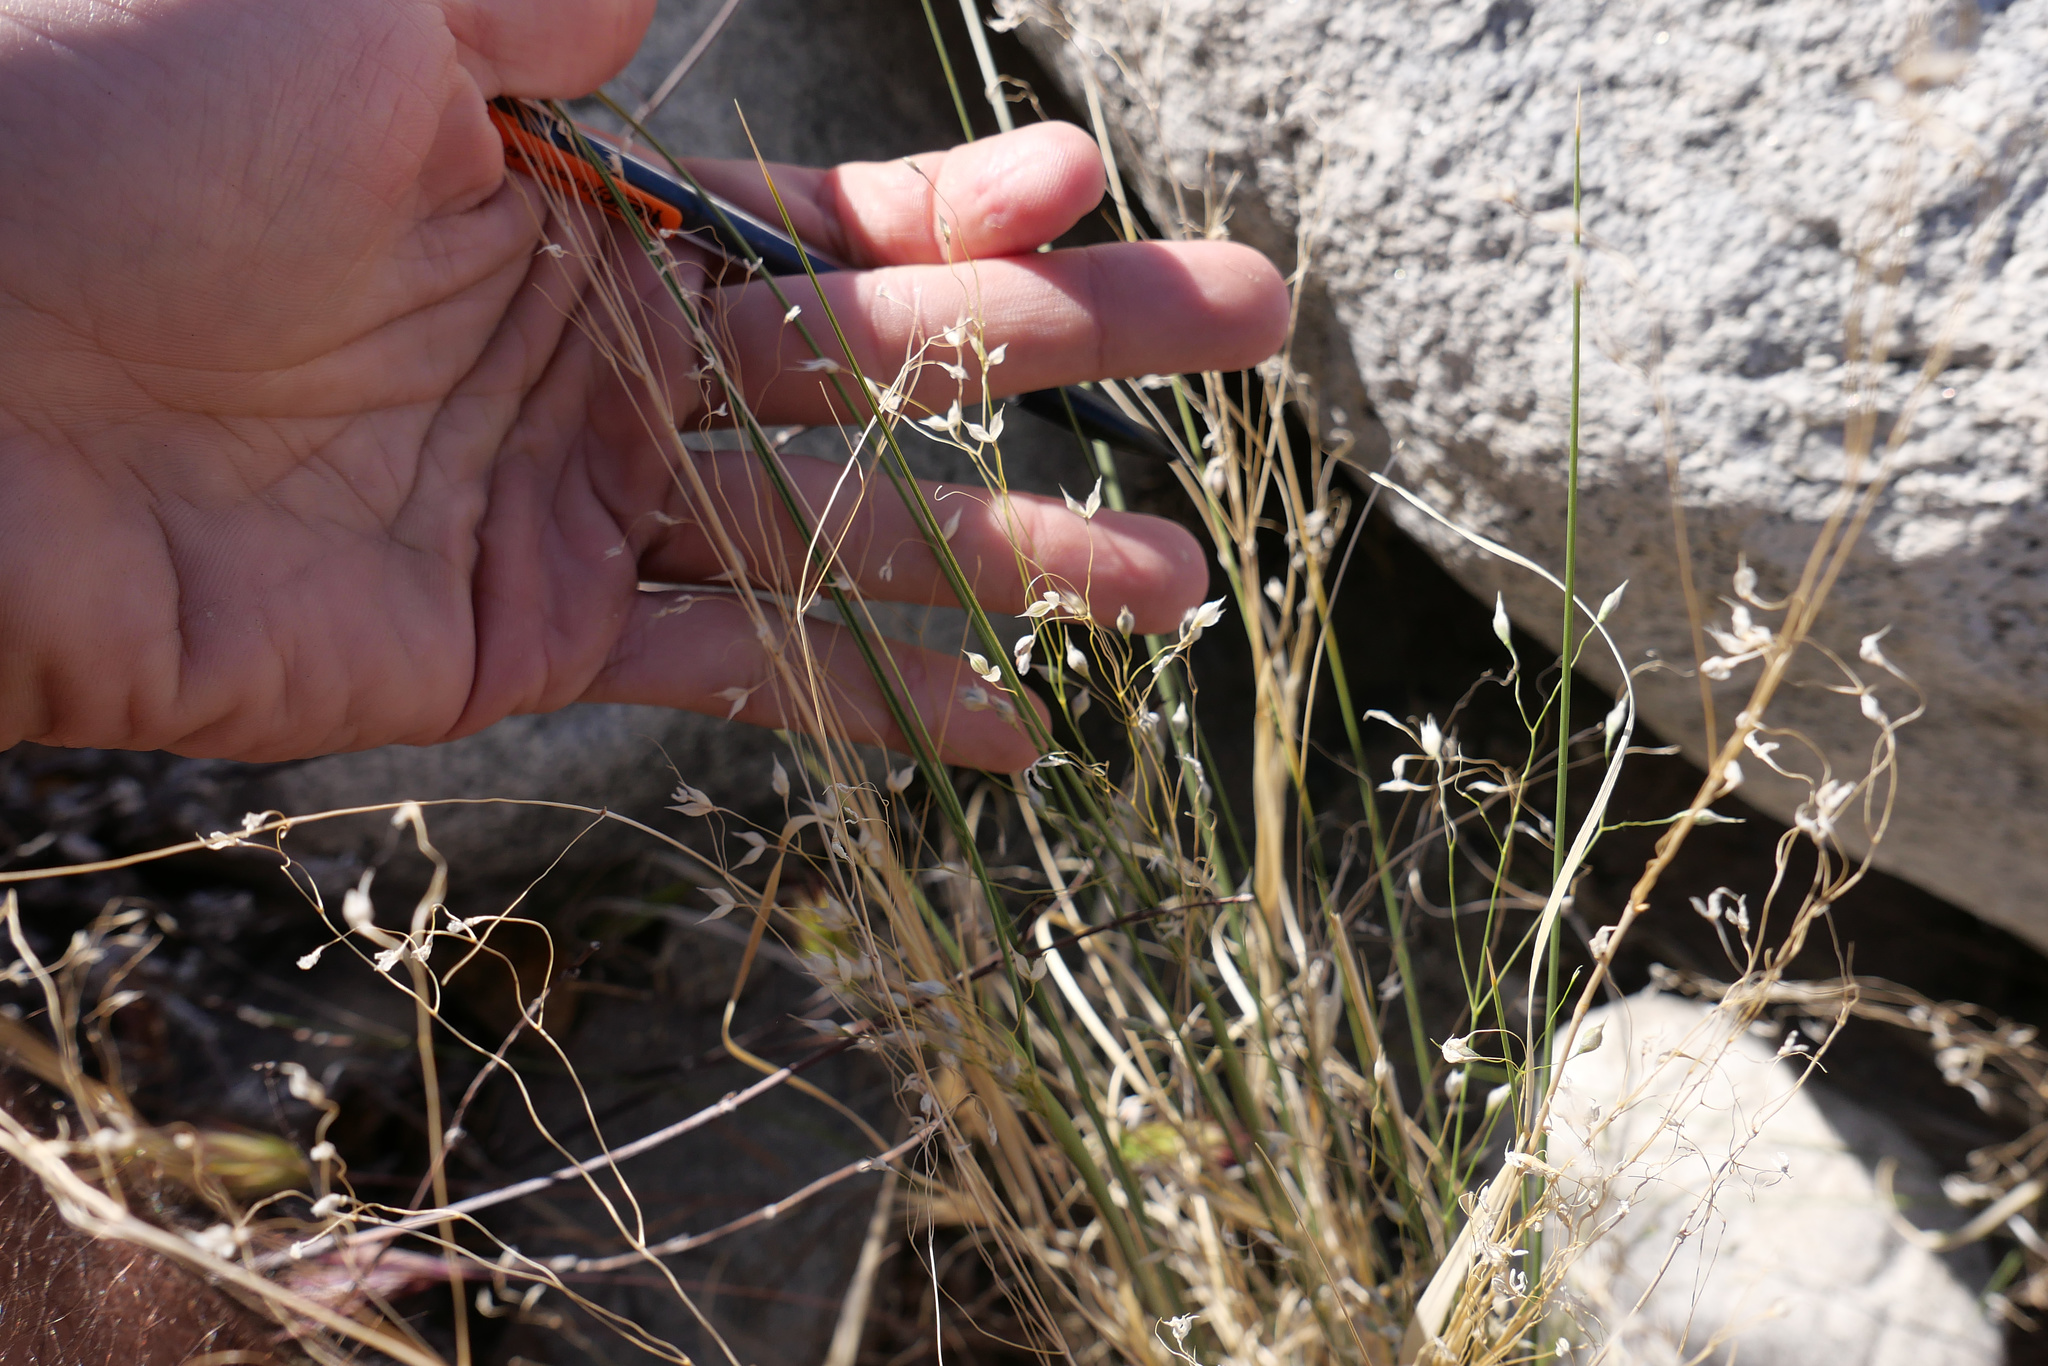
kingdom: Plantae
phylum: Tracheophyta
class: Liliopsida
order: Poales
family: Poaceae
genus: Eriocoma
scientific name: Eriocoma hymenoides
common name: Indian mountain ricegrass
